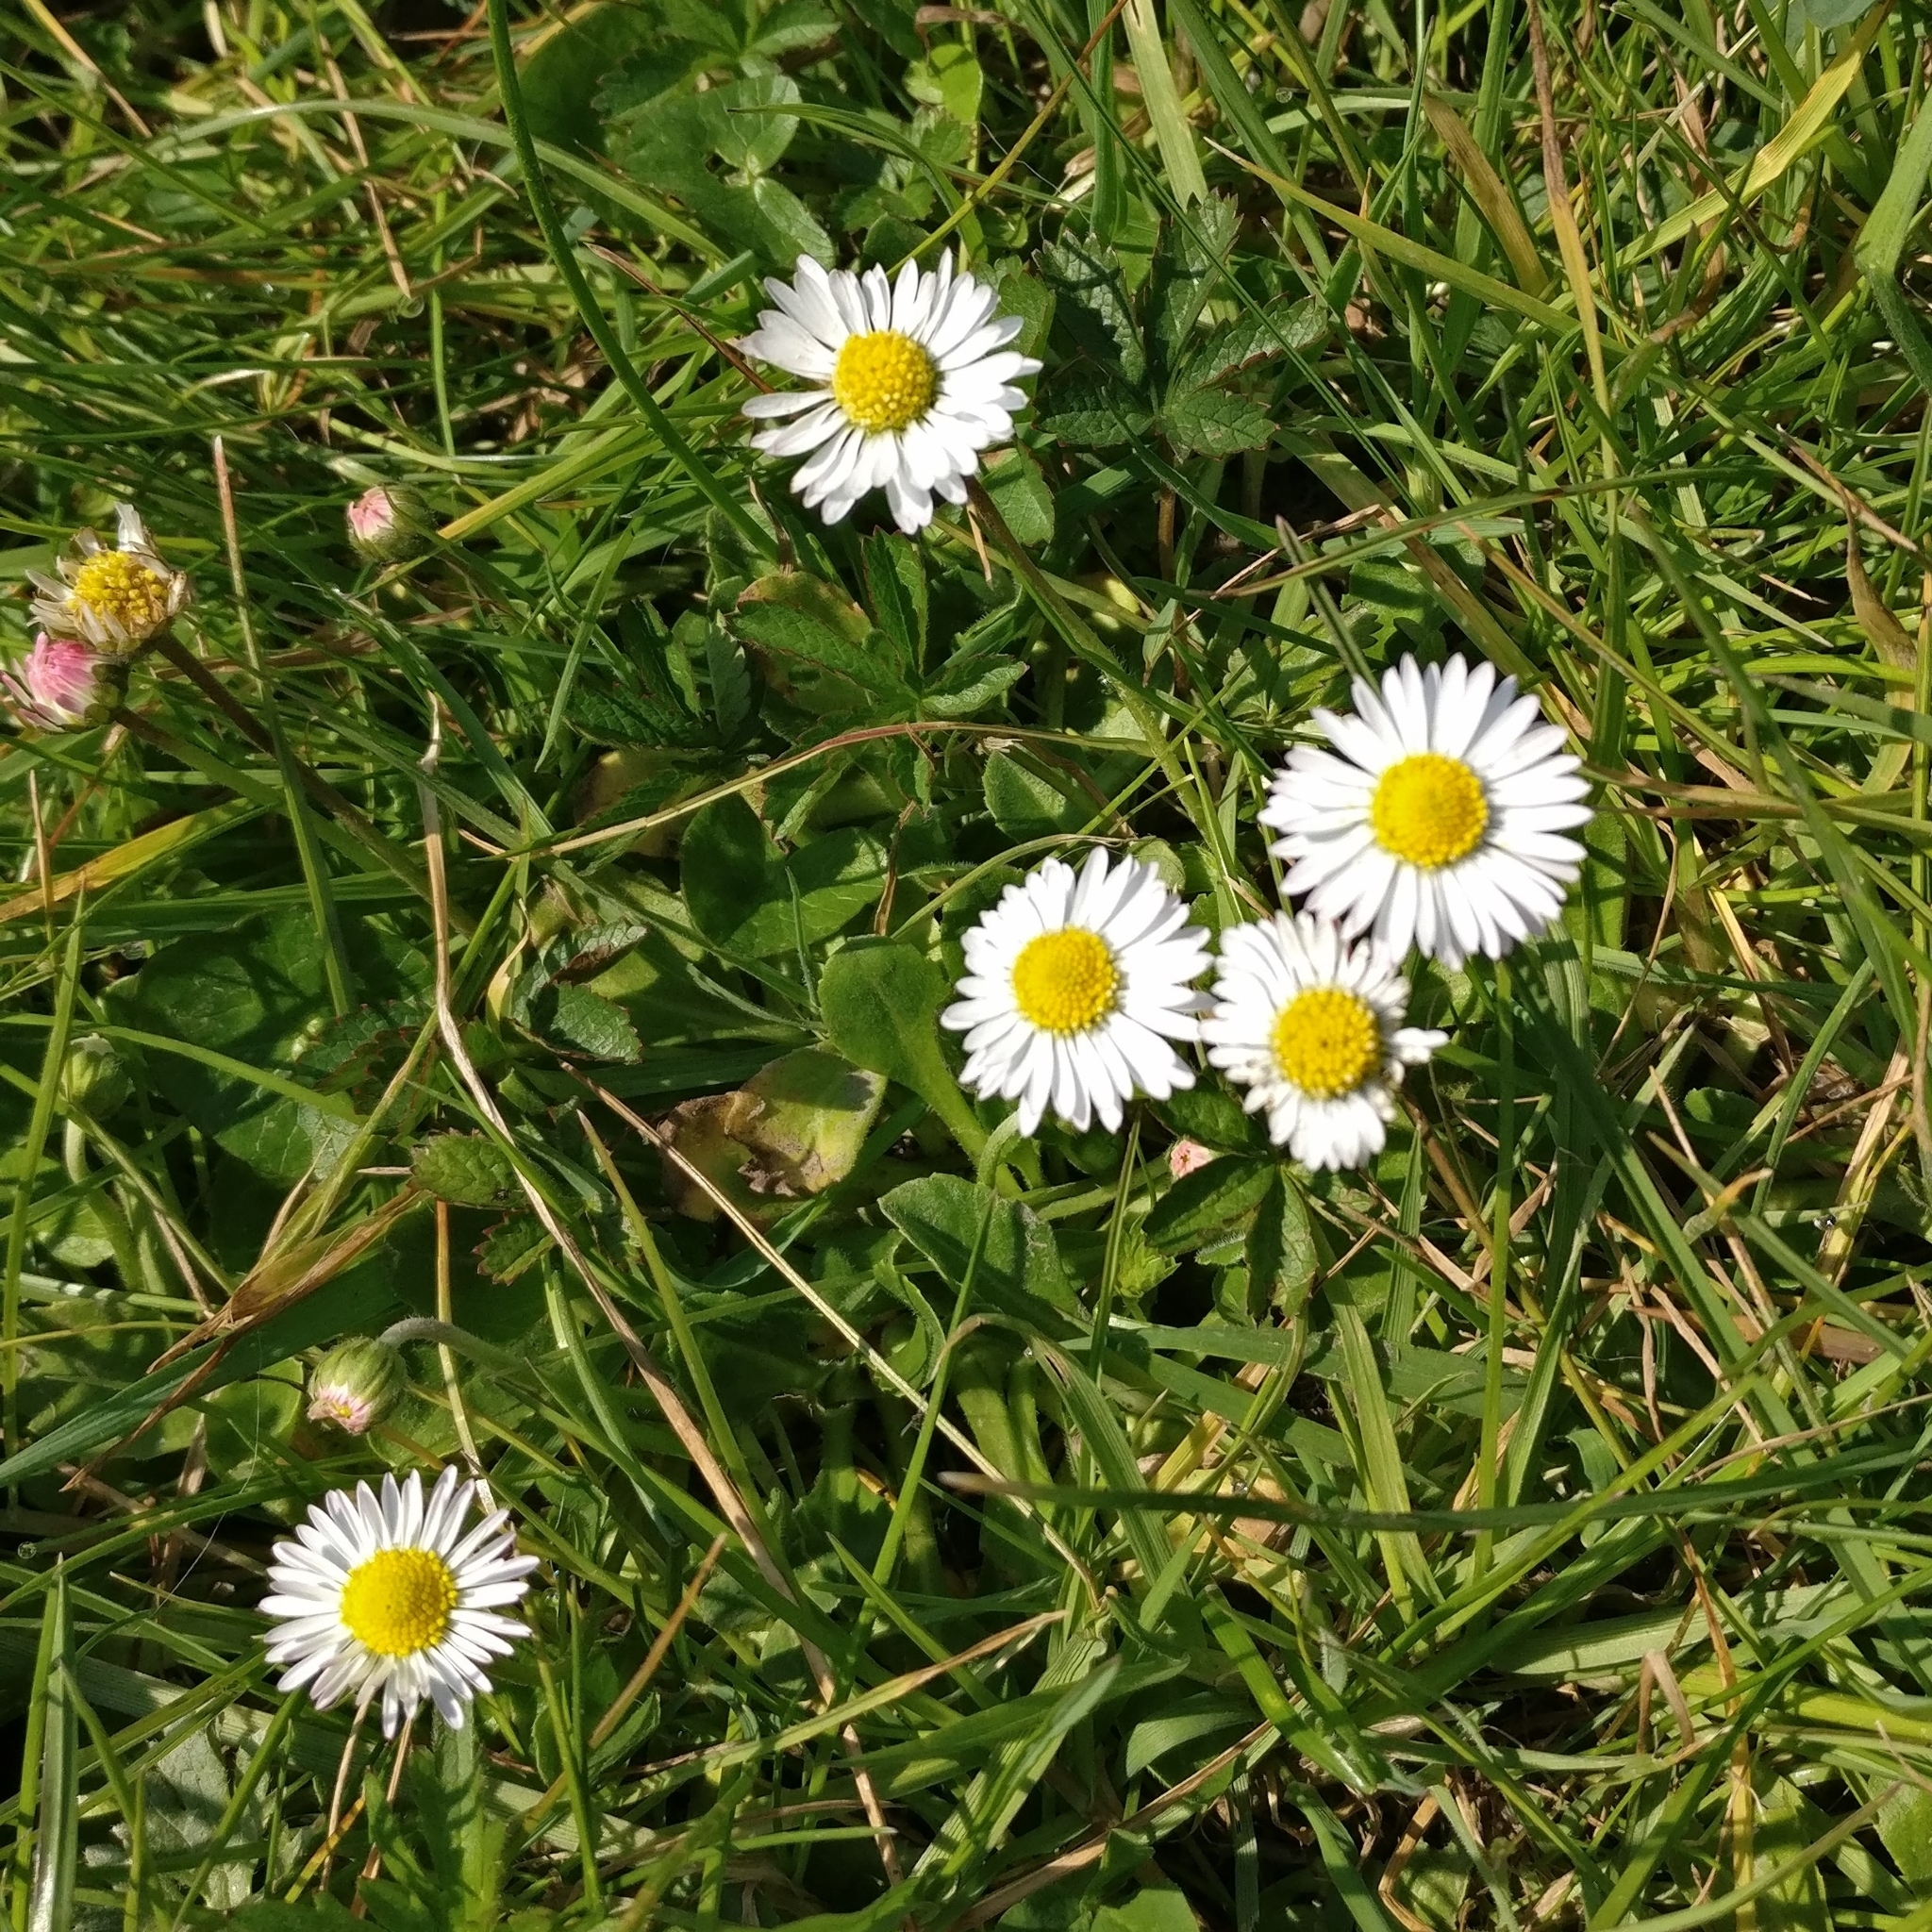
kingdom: Plantae
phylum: Tracheophyta
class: Magnoliopsida
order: Asterales
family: Asteraceae
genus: Bellis
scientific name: Bellis perennis
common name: Lawndaisy
